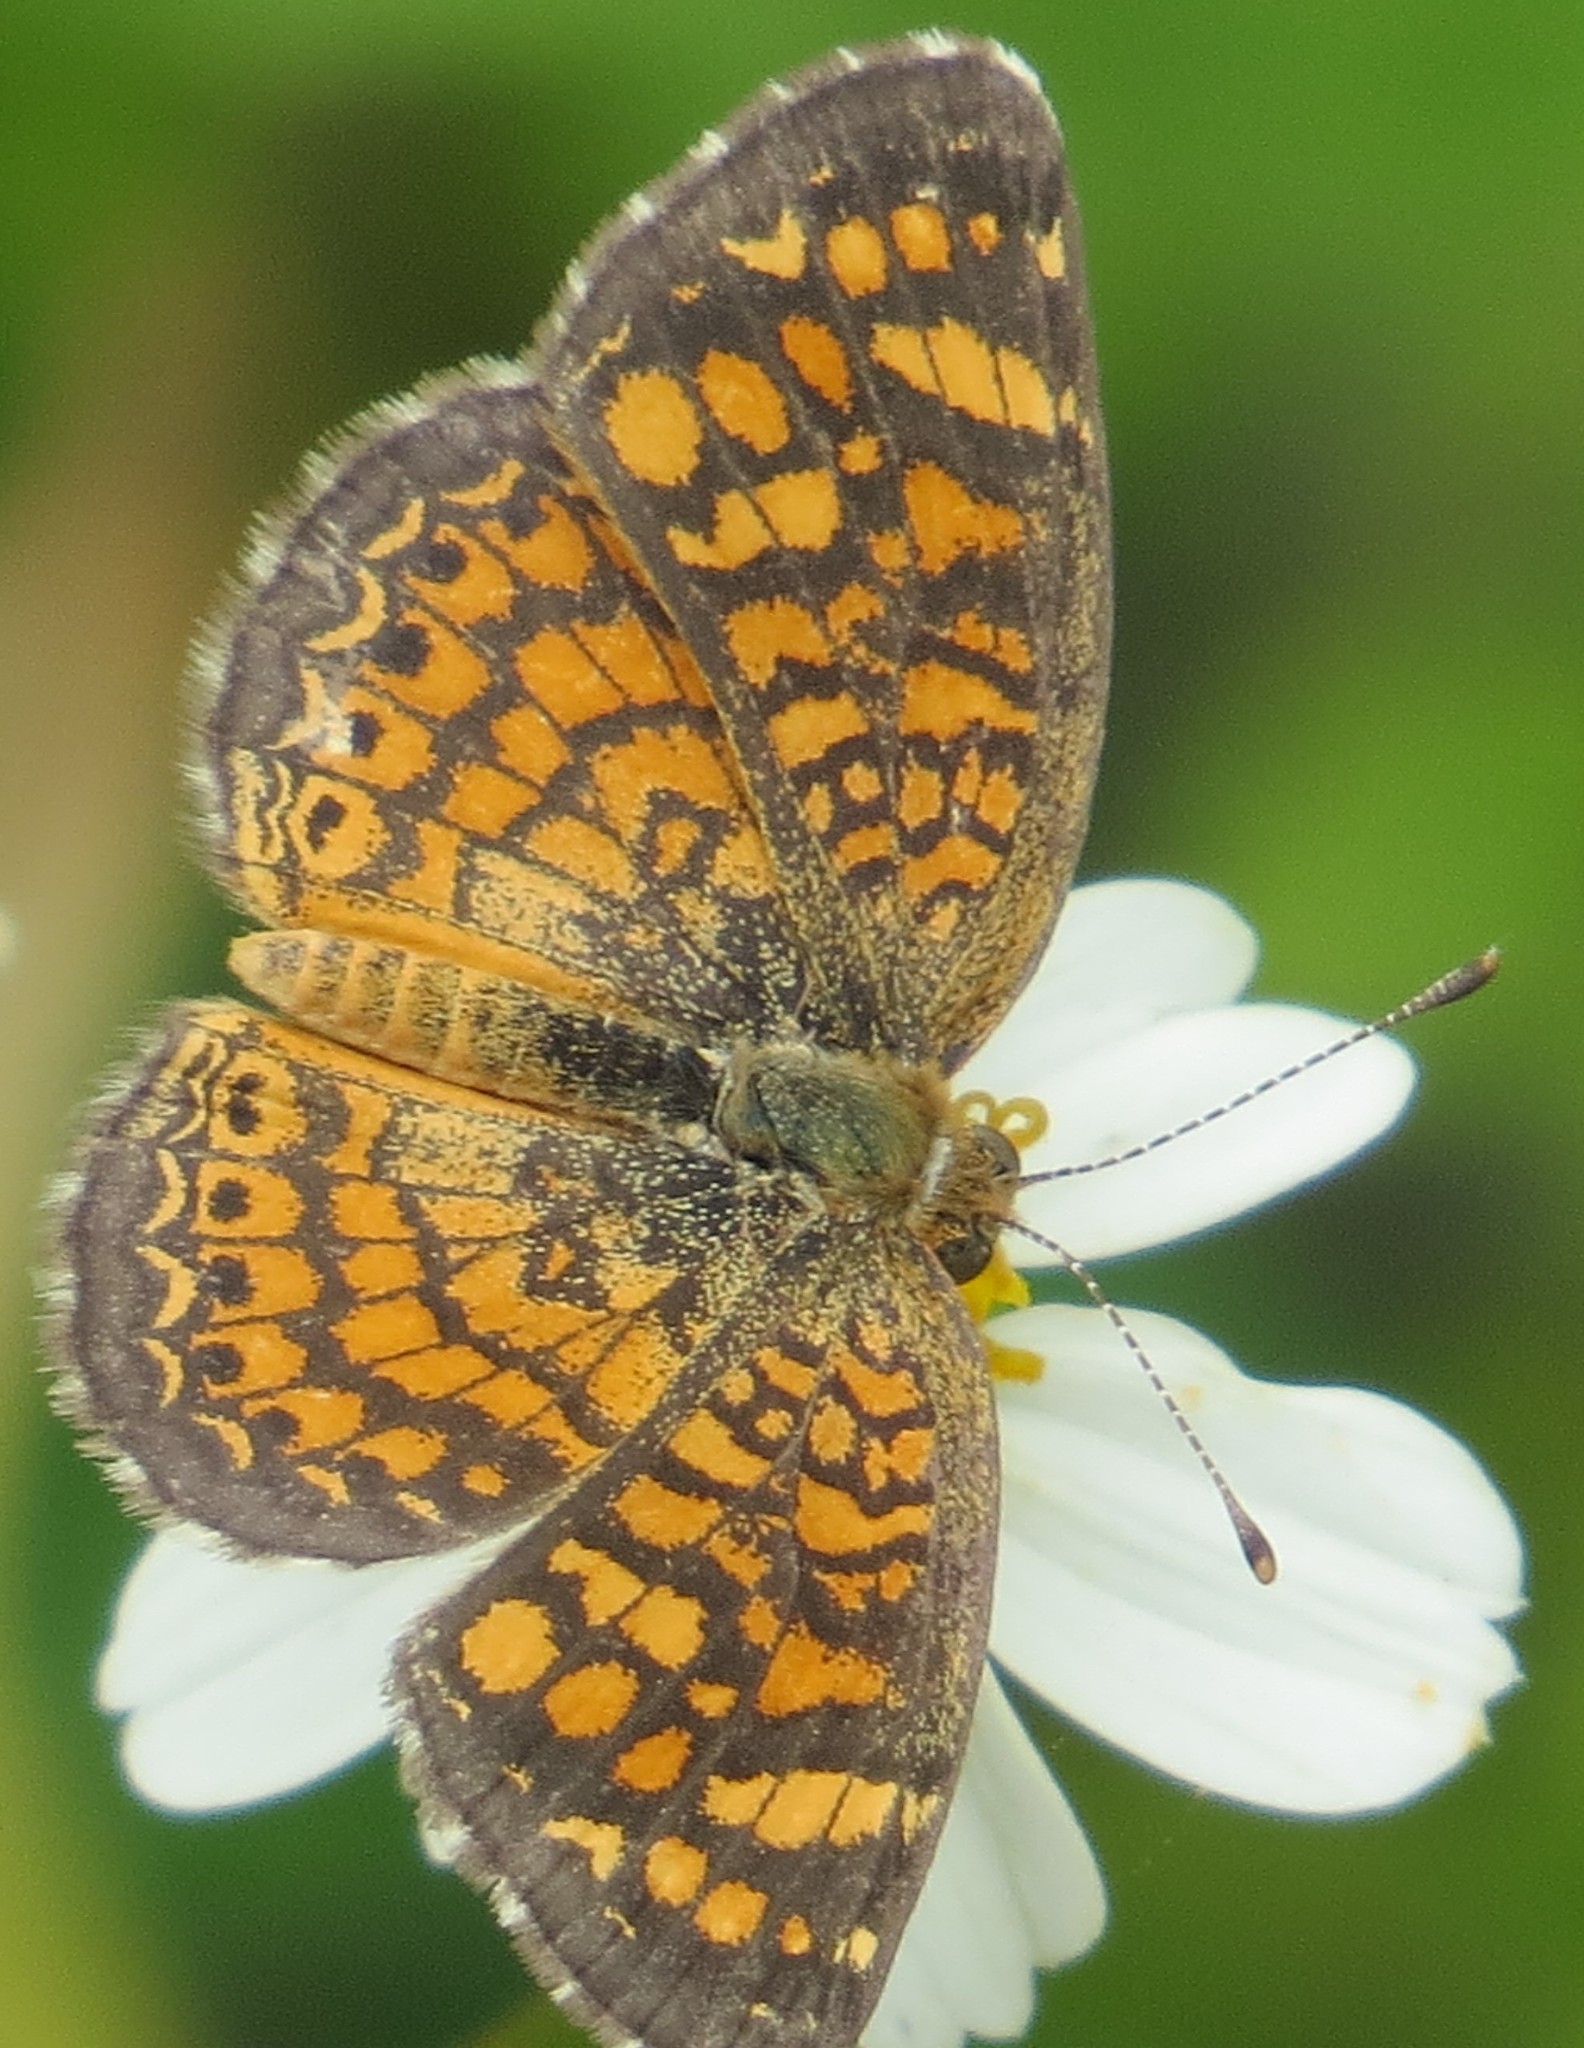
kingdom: Animalia
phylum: Arthropoda
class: Insecta
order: Lepidoptera
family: Nymphalidae
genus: Phyciodes
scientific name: Phyciodes vesta
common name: Vesta crescent
